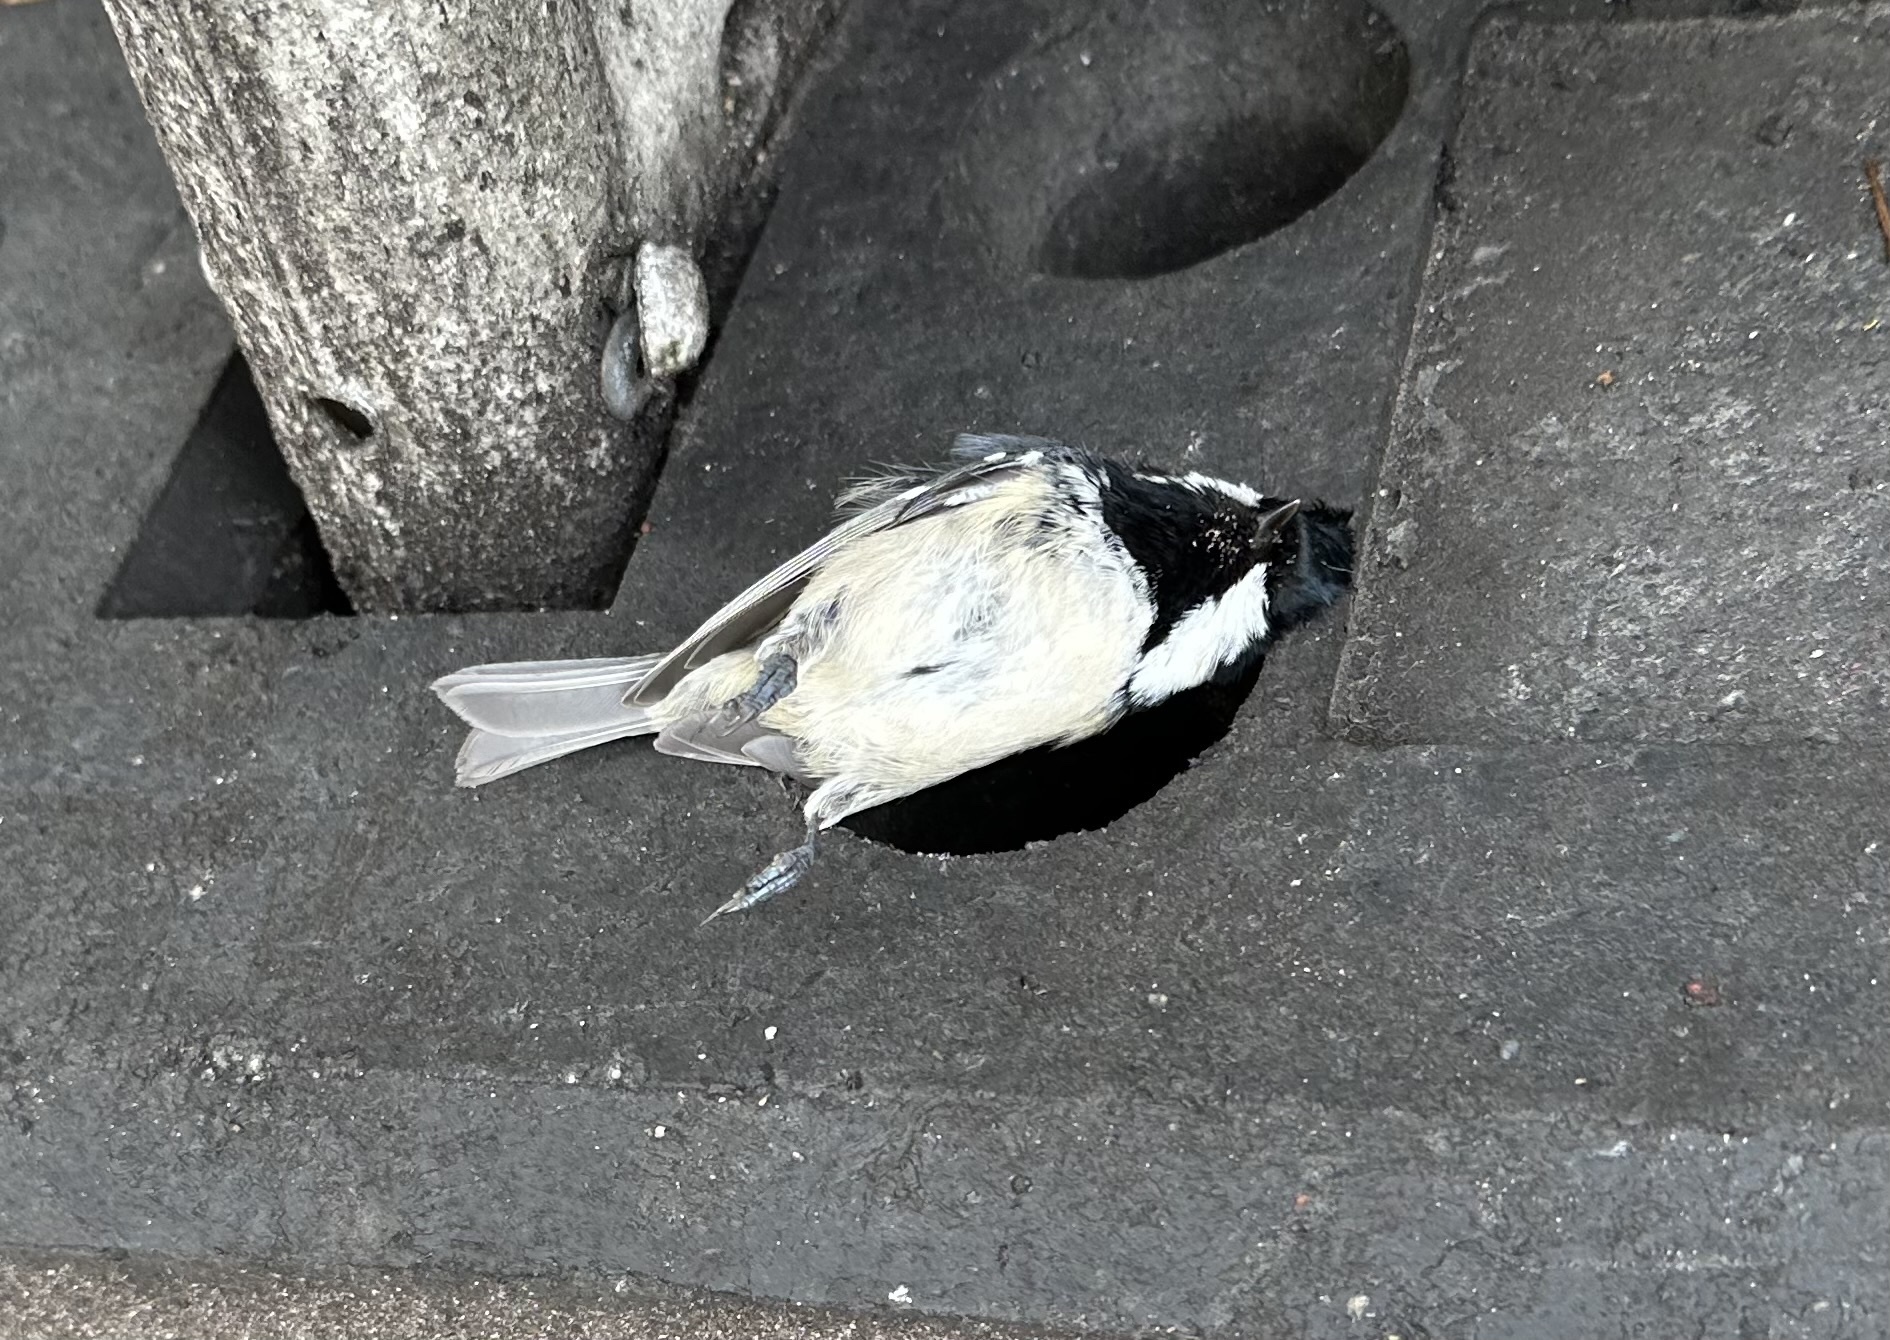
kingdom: Animalia
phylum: Chordata
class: Aves
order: Passeriformes
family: Paridae
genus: Periparus
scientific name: Periparus ater
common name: Coal tit
